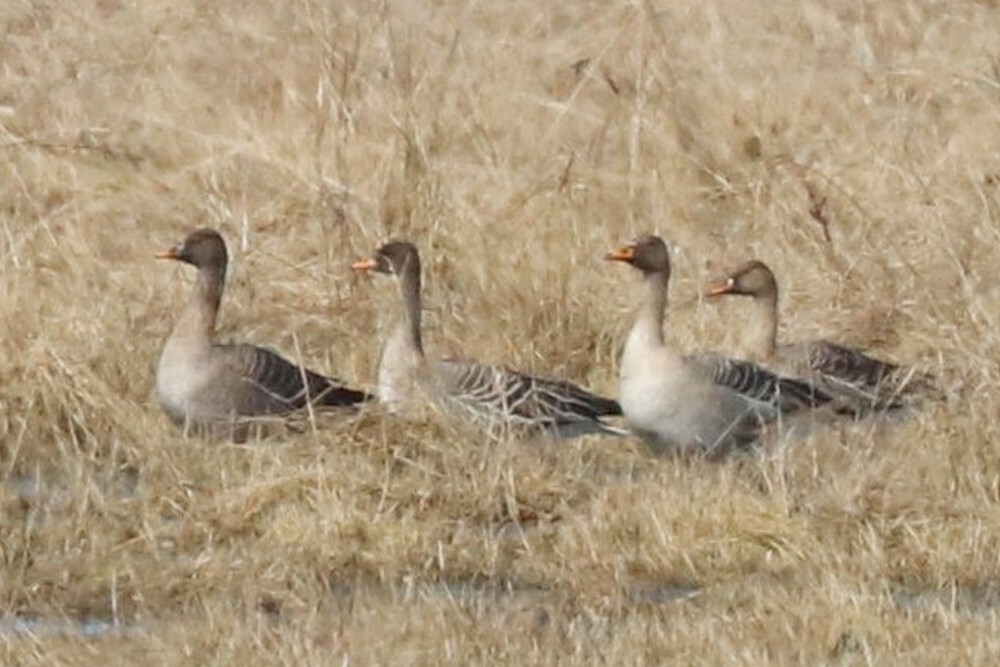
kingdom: Animalia
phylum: Chordata
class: Aves
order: Anseriformes
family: Anatidae
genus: Anser
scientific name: Anser fabalis
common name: Bean goose
